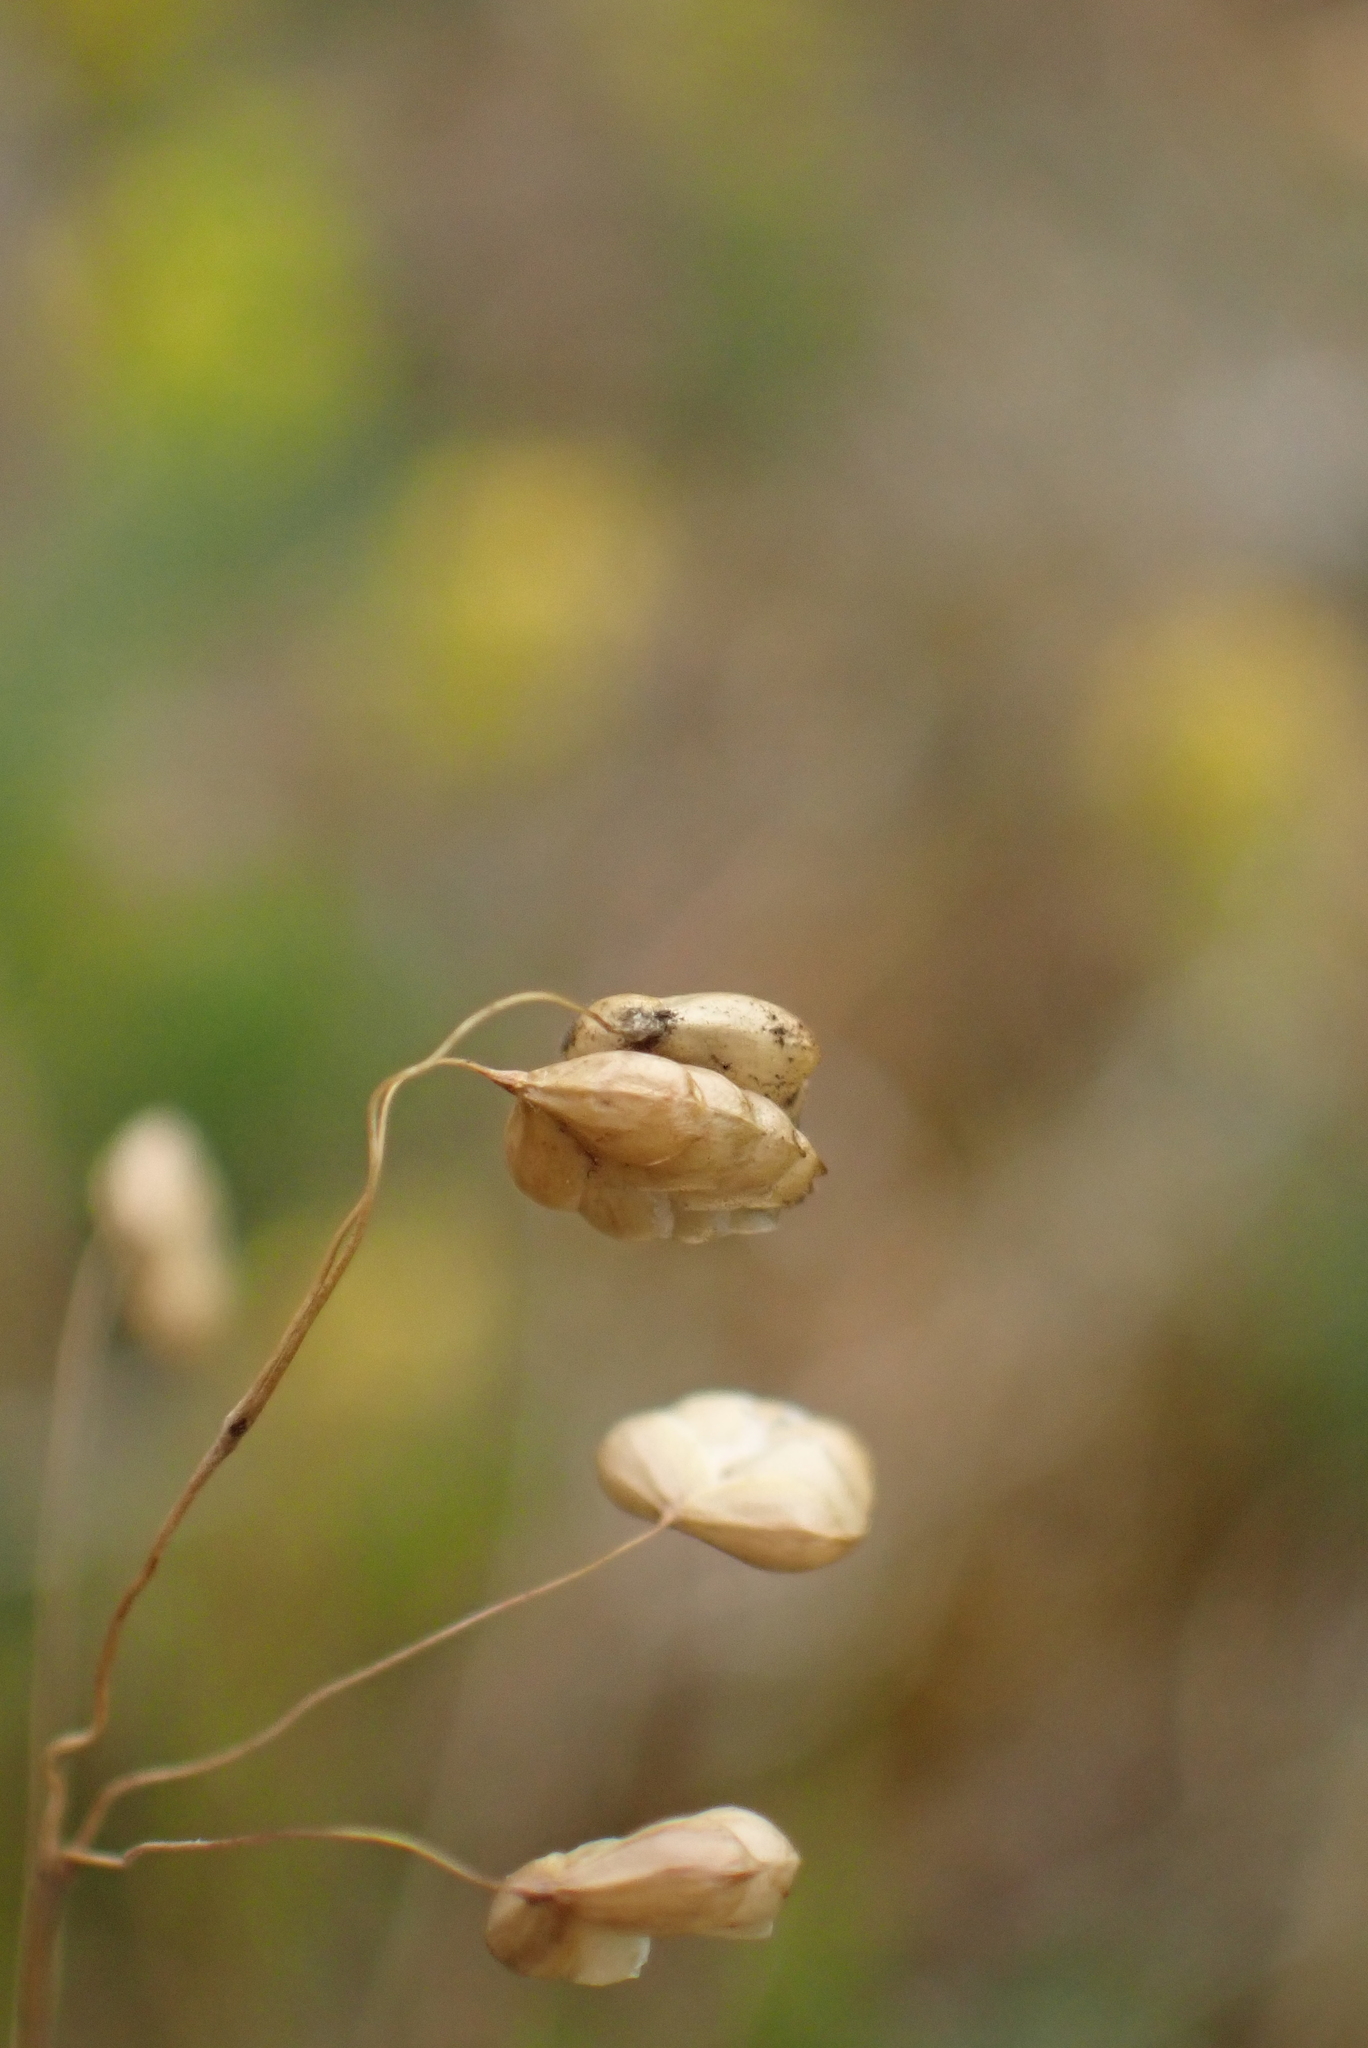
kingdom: Plantae
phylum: Tracheophyta
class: Liliopsida
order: Poales
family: Poaceae
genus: Briza
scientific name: Briza media
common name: Quaking grass
